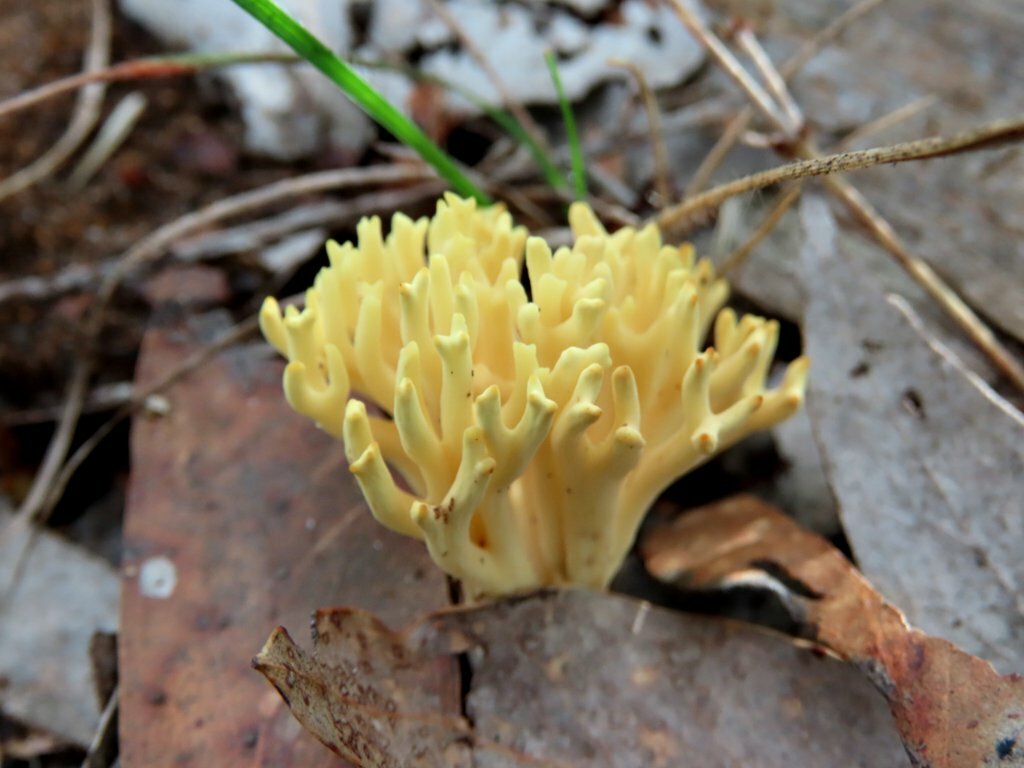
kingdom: Fungi
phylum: Basidiomycota
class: Agaricomycetes
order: Gomphales
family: Gomphaceae
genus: Ramaria
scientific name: Ramaria lorithamnus
